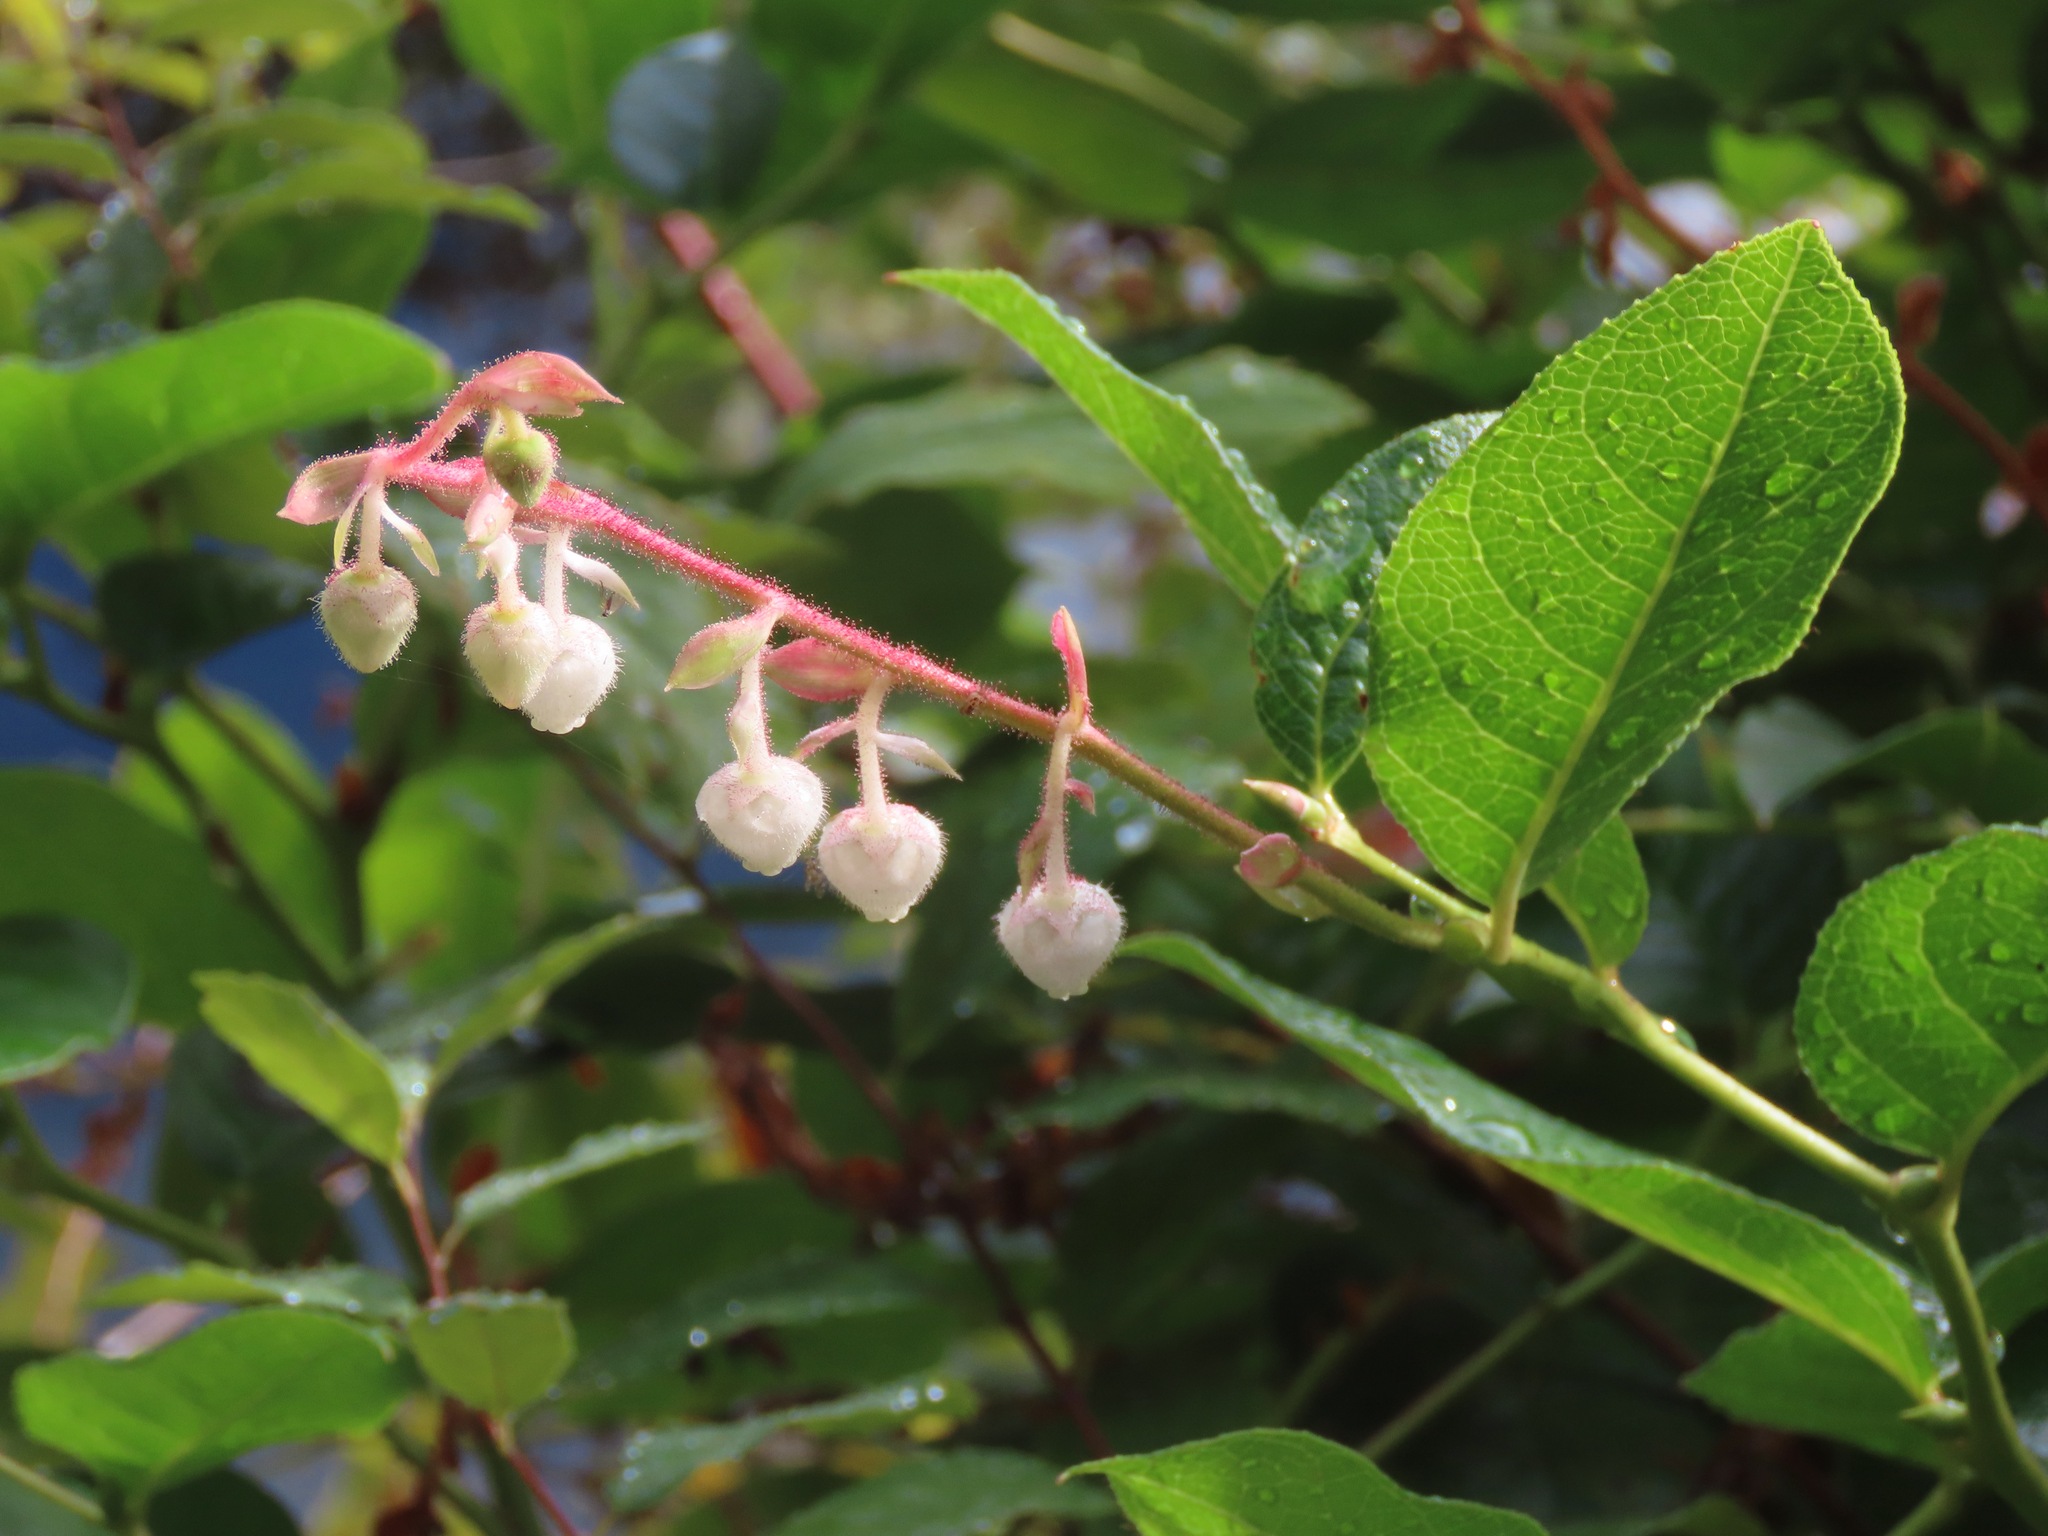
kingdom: Plantae
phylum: Tracheophyta
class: Magnoliopsida
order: Ericales
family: Ericaceae
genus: Gaultheria
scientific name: Gaultheria shallon
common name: Shallon
